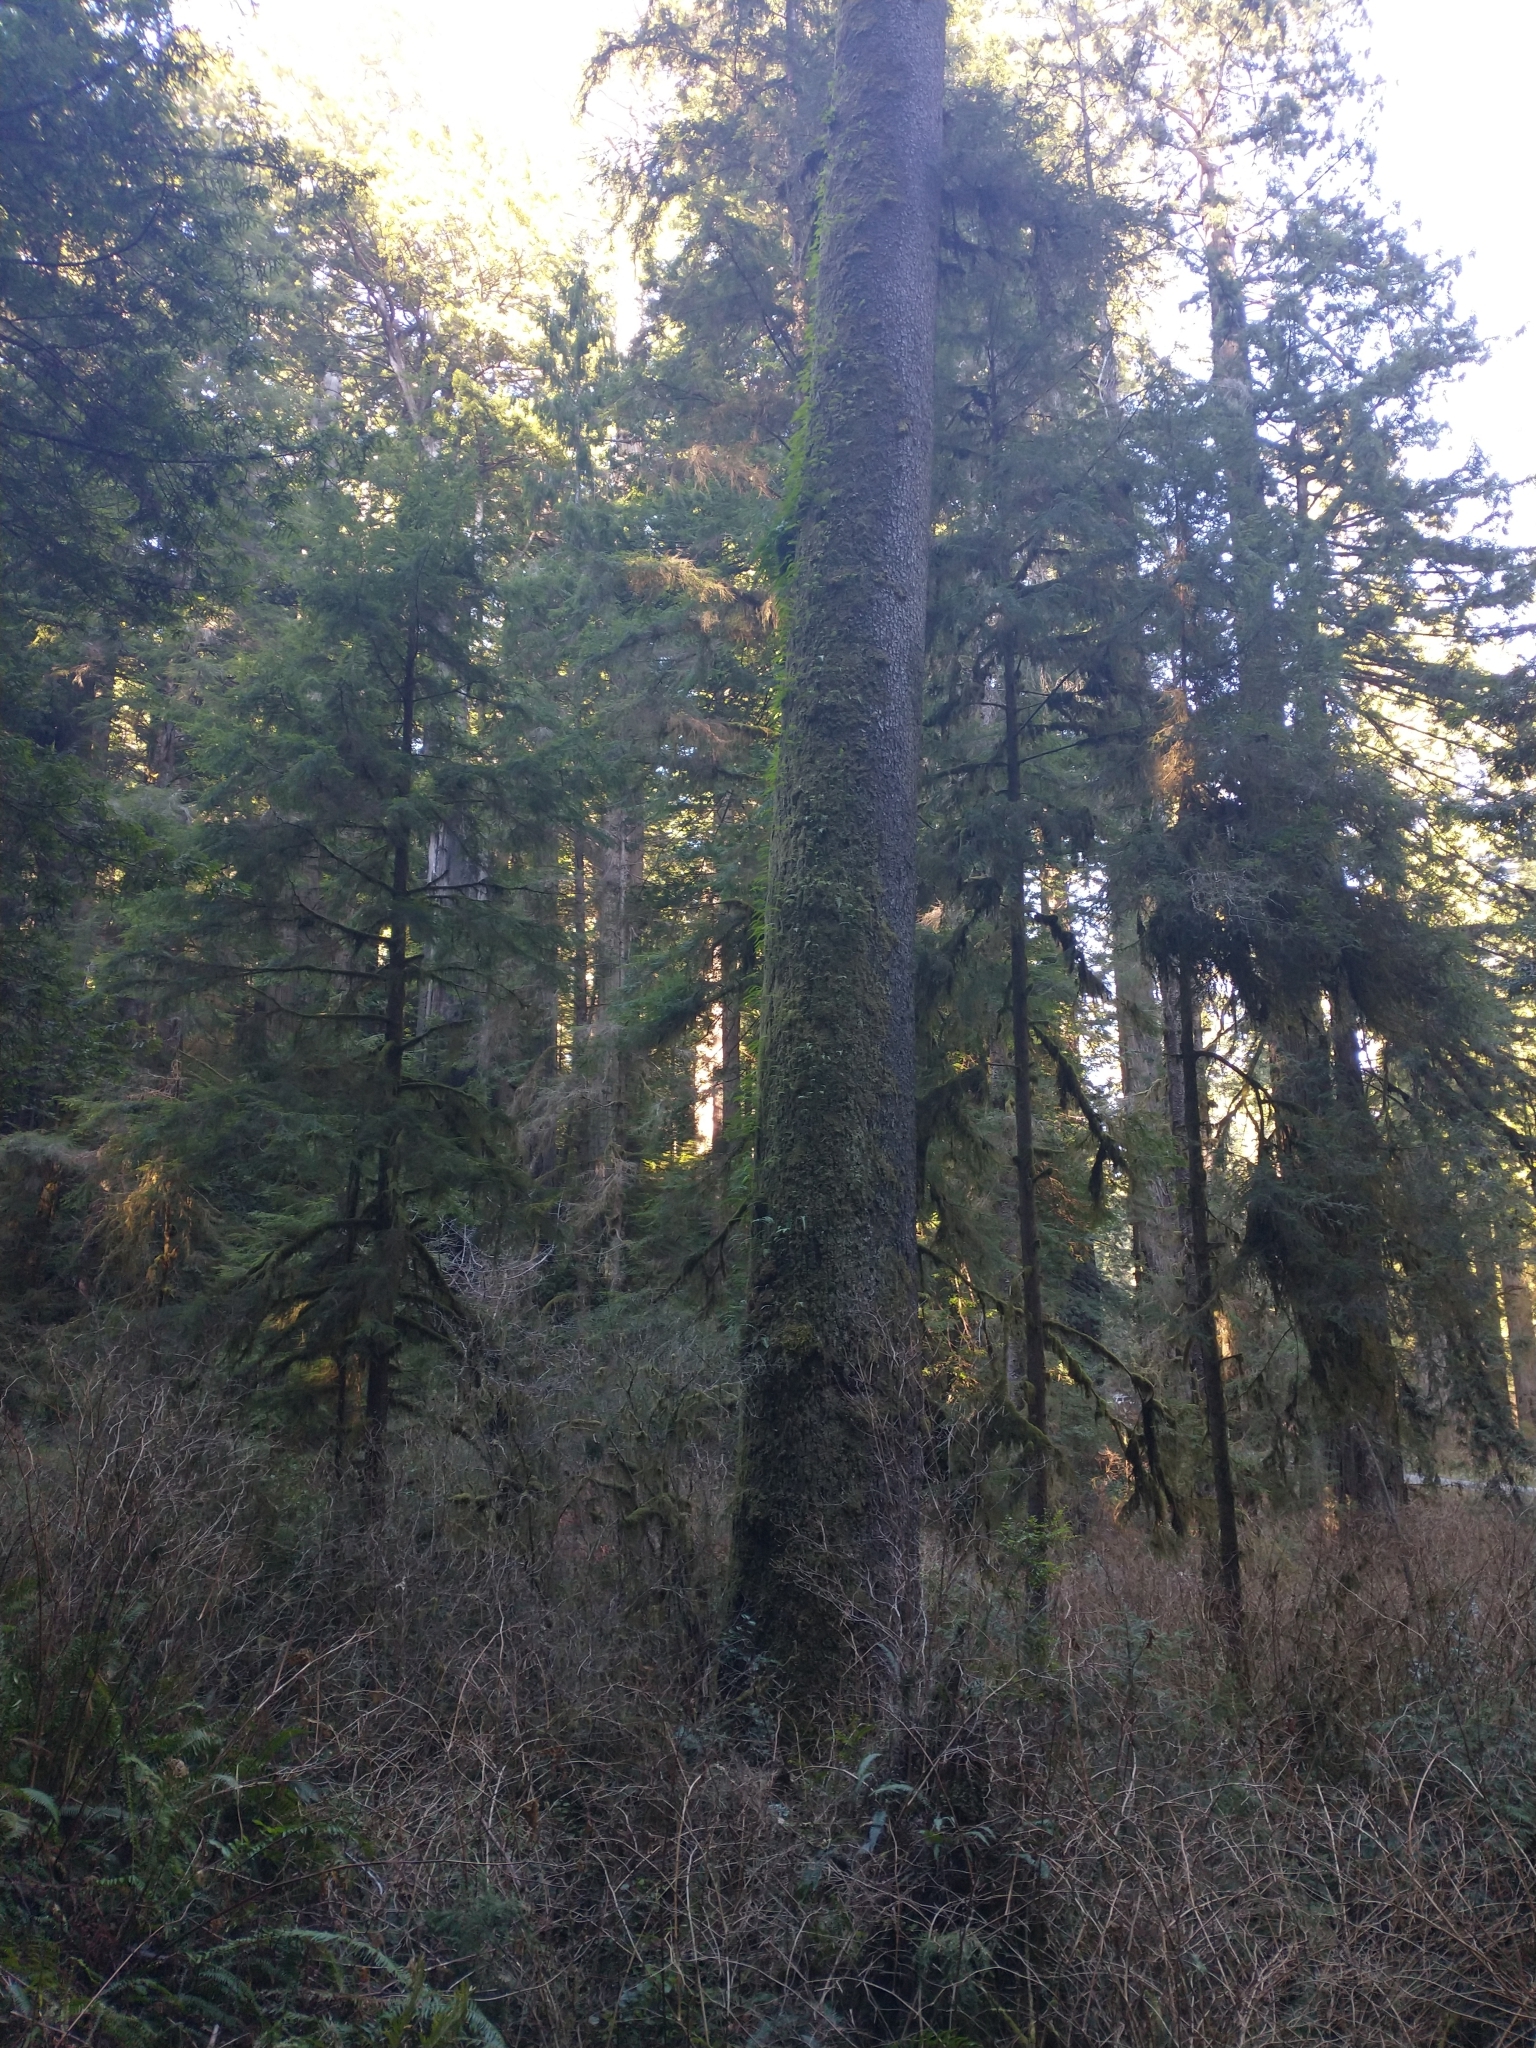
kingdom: Plantae
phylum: Tracheophyta
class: Pinopsida
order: Pinales
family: Pinaceae
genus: Picea
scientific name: Picea sitchensis
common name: Sitka spruce
